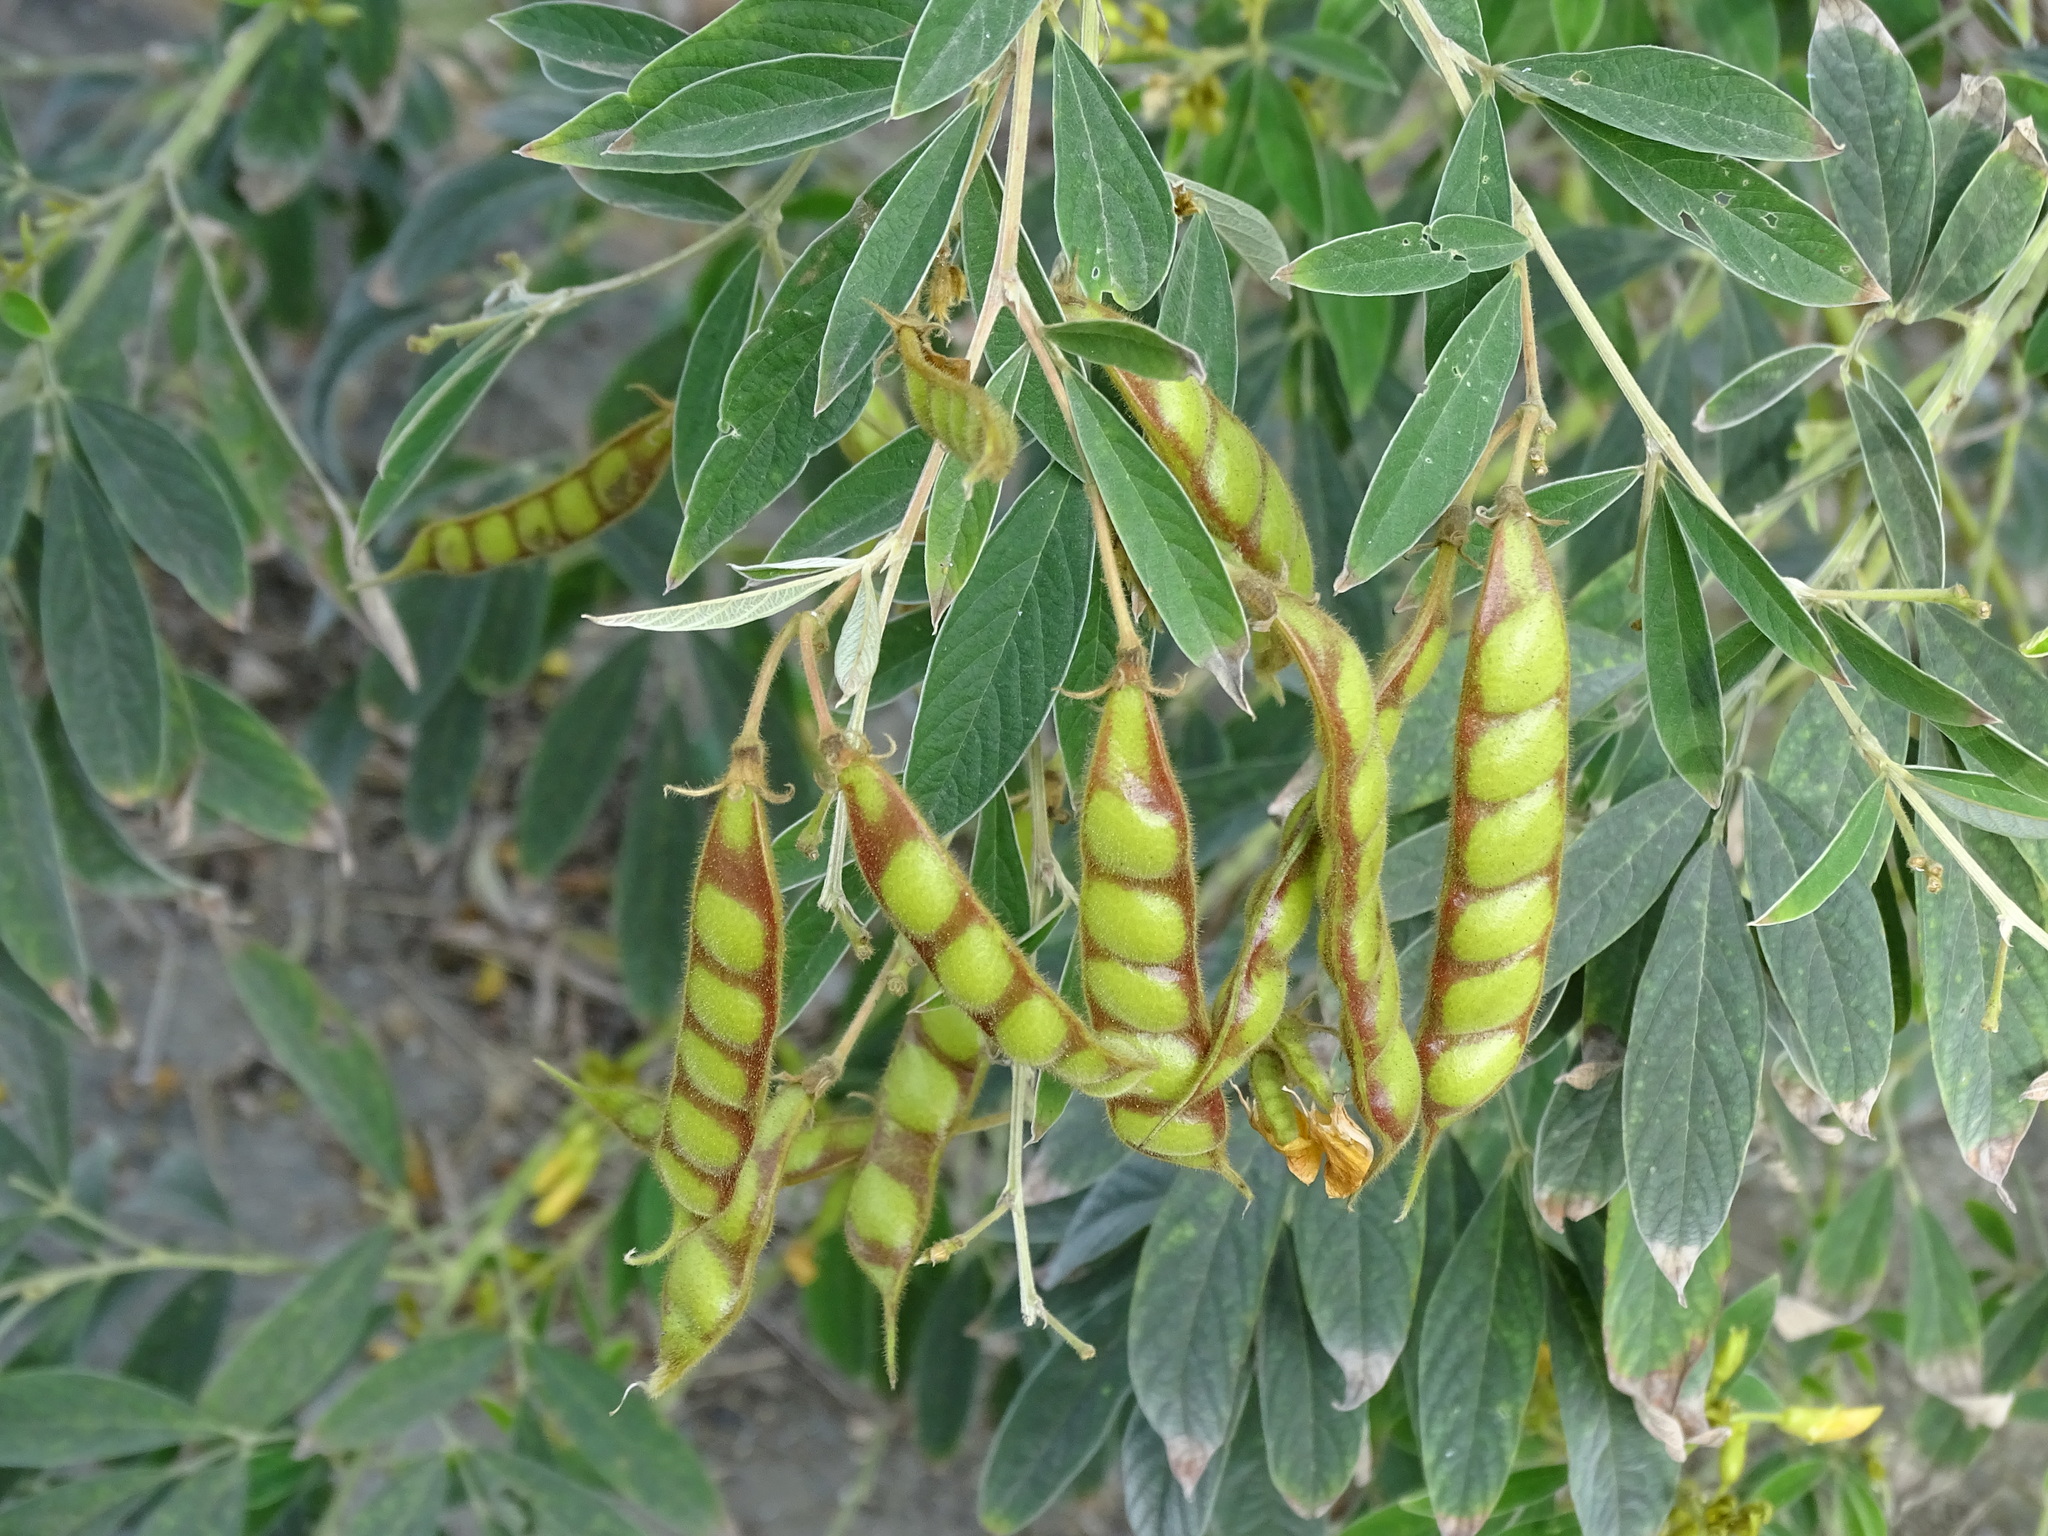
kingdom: Plantae
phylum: Tracheophyta
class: Magnoliopsida
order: Fabales
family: Fabaceae
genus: Cajanus
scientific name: Cajanus cajan
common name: Pigeonpea
